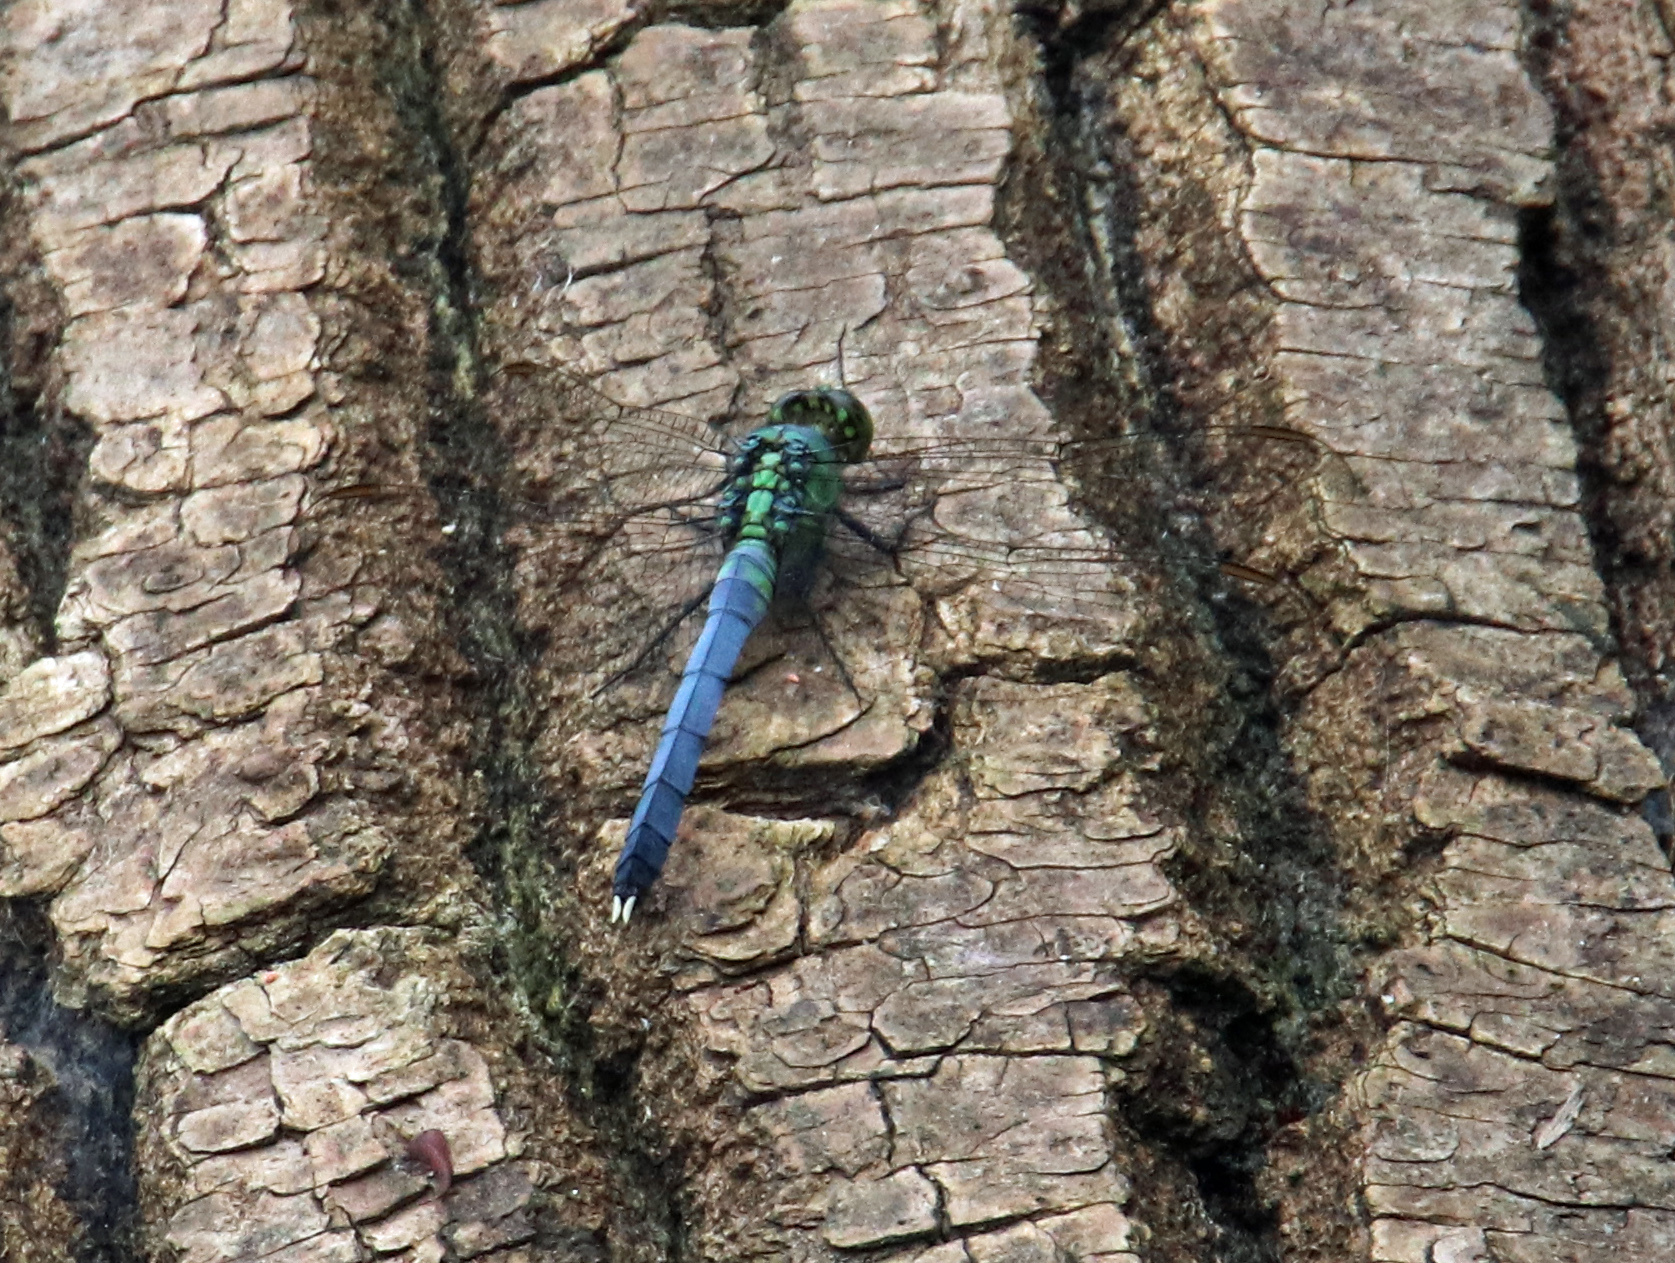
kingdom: Animalia
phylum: Arthropoda
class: Insecta
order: Odonata
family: Libellulidae
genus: Erythemis
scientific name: Erythemis simplicicollis
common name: Eastern pondhawk
